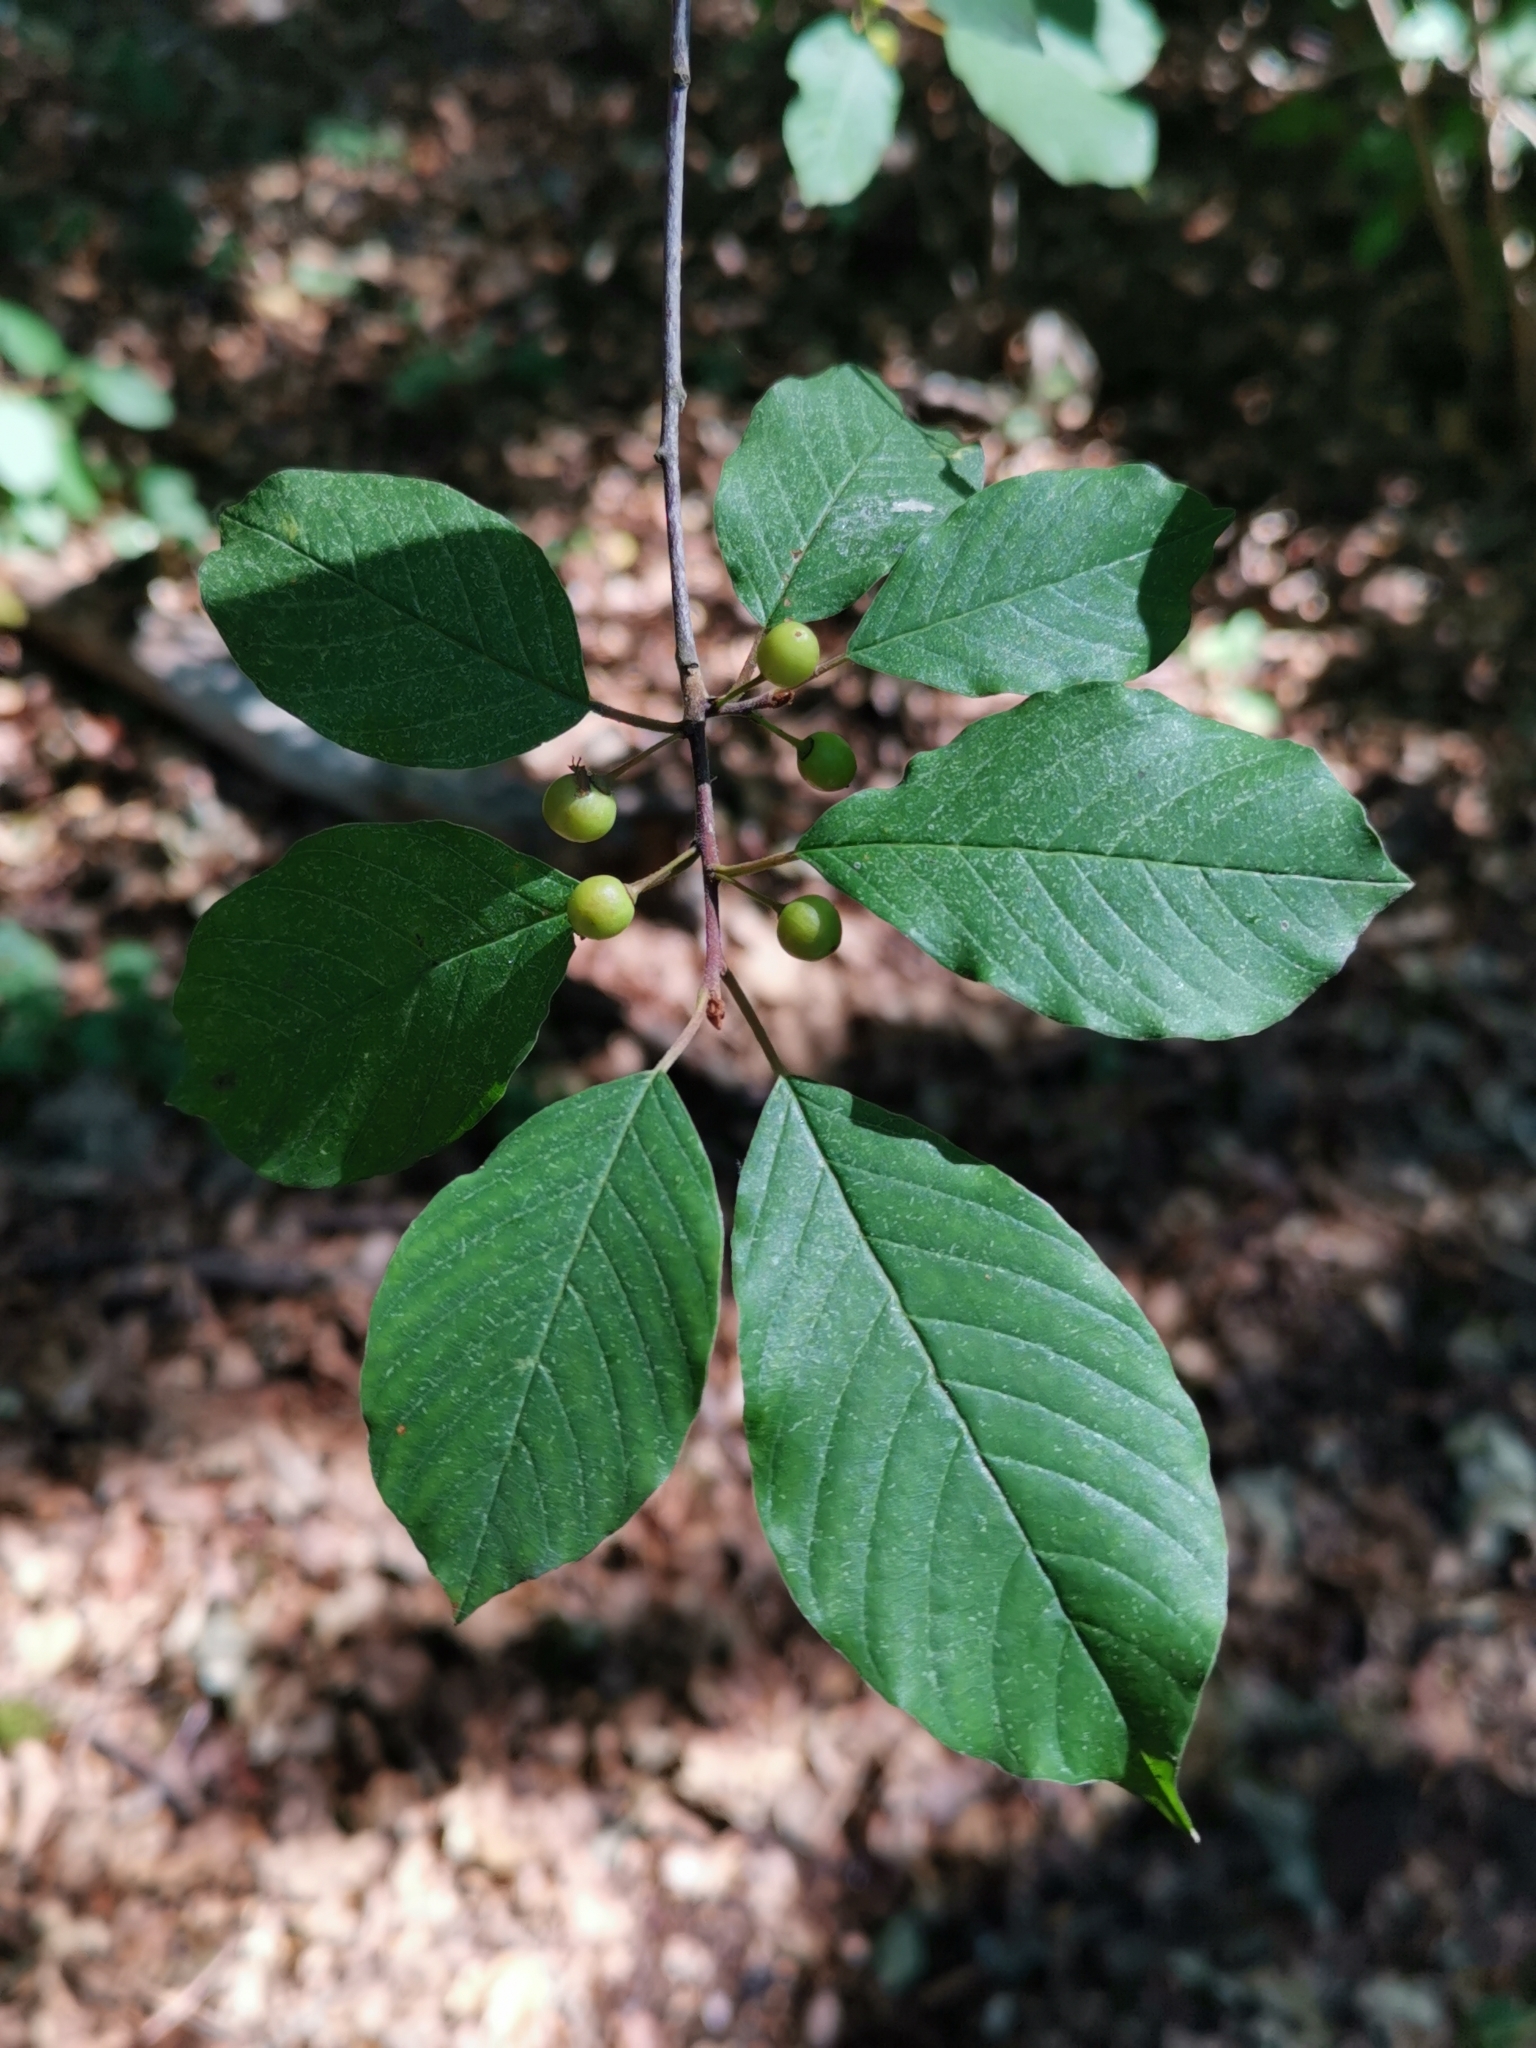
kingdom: Plantae
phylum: Tracheophyta
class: Magnoliopsida
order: Rosales
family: Rhamnaceae
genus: Frangula
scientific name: Frangula alnus
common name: Alder buckthorn
